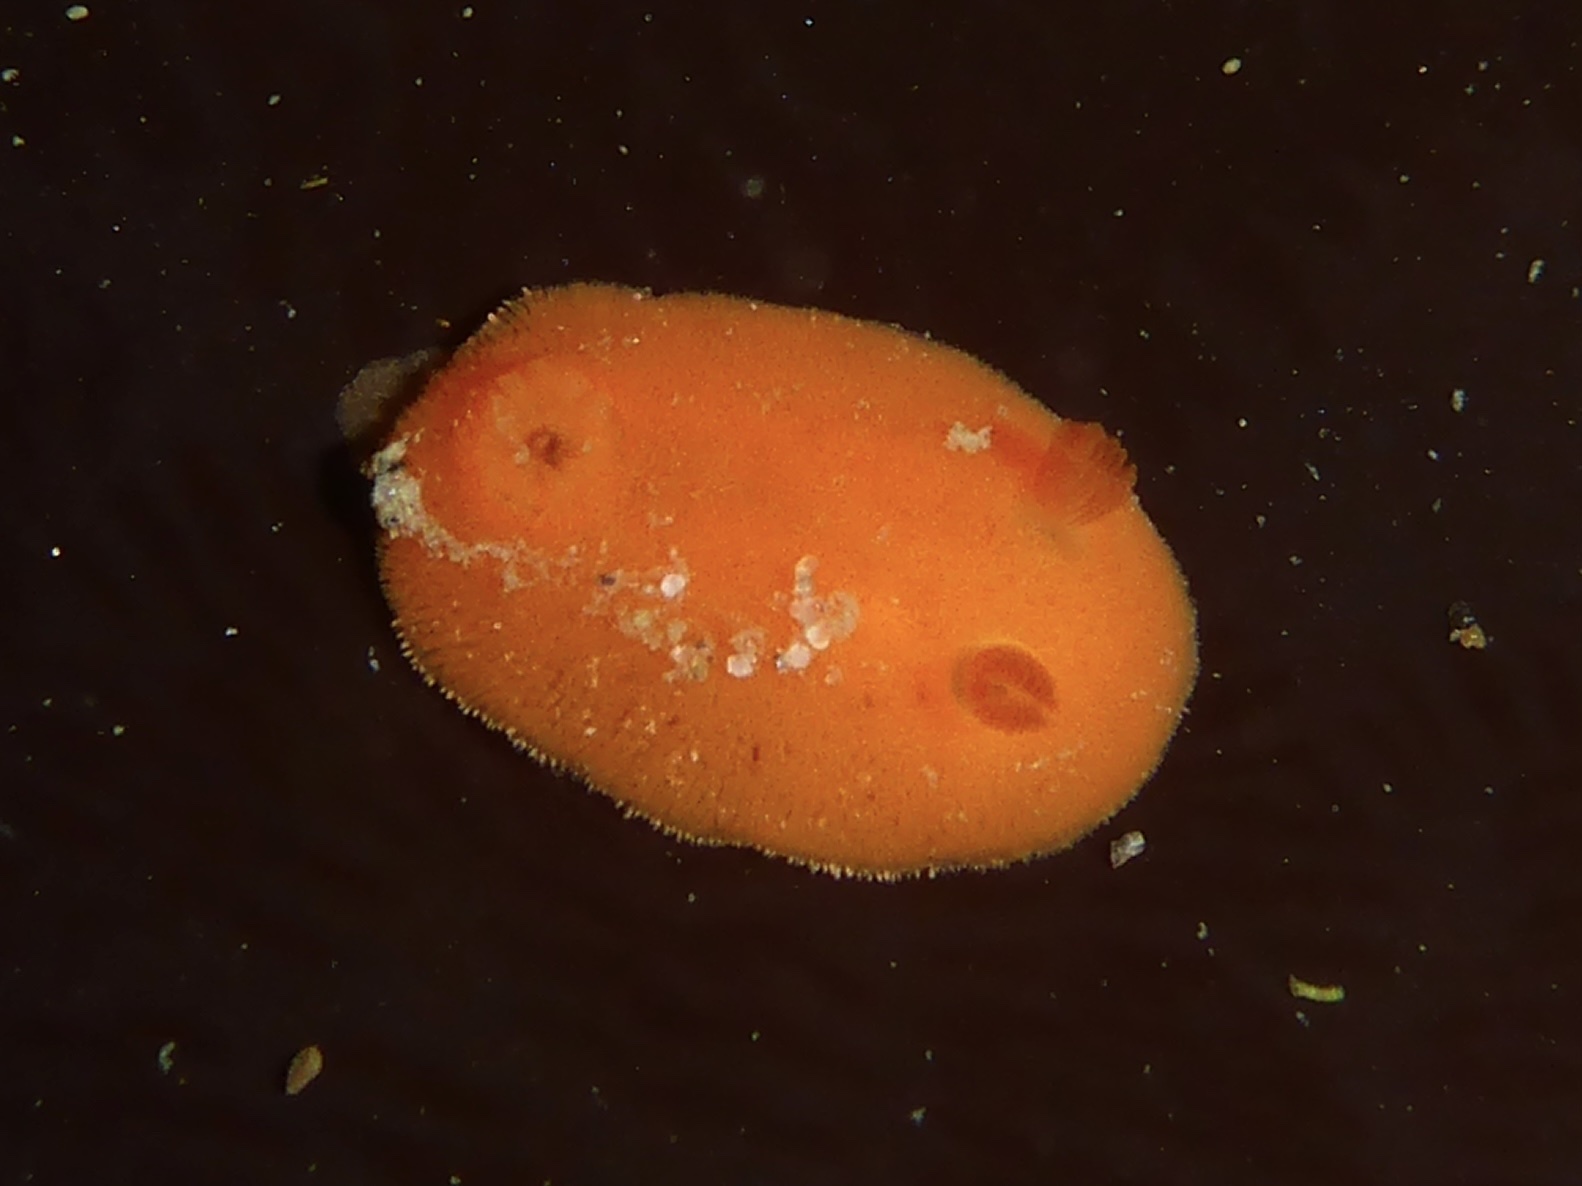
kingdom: Animalia
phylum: Mollusca
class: Gastropoda
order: Nudibranchia
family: Discodorididae
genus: Rostanga
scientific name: Rostanga pulchra
